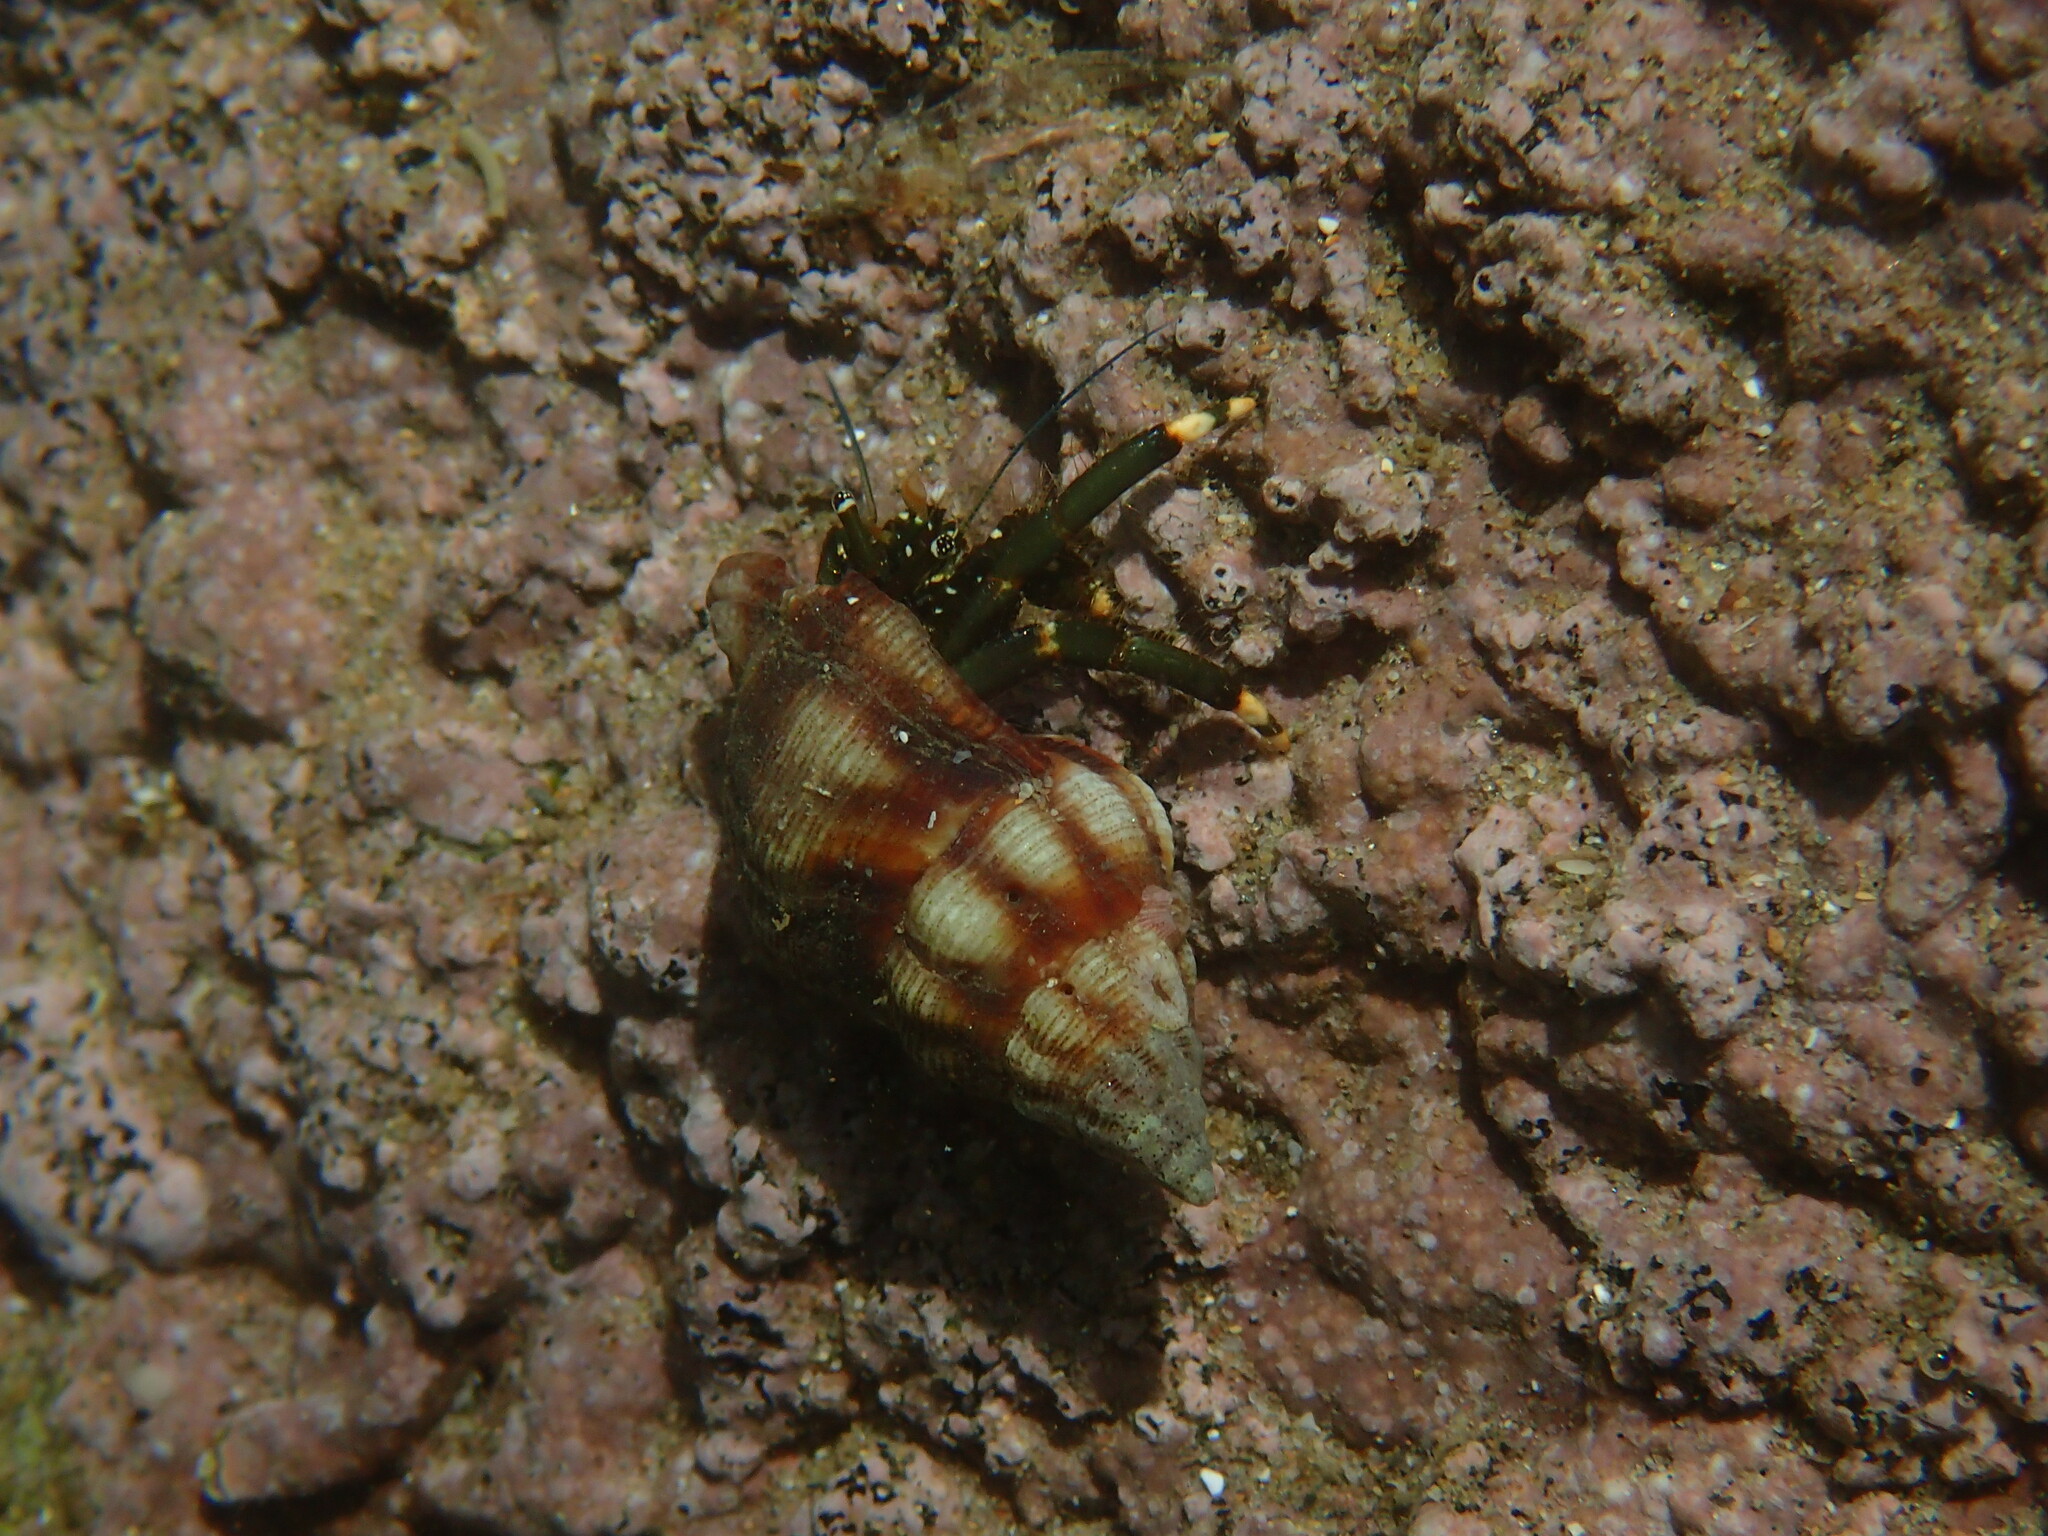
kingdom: Animalia
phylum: Arthropoda
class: Malacostraca
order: Decapoda
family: Diogenidae
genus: Clibanarius
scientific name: Clibanarius virescens
